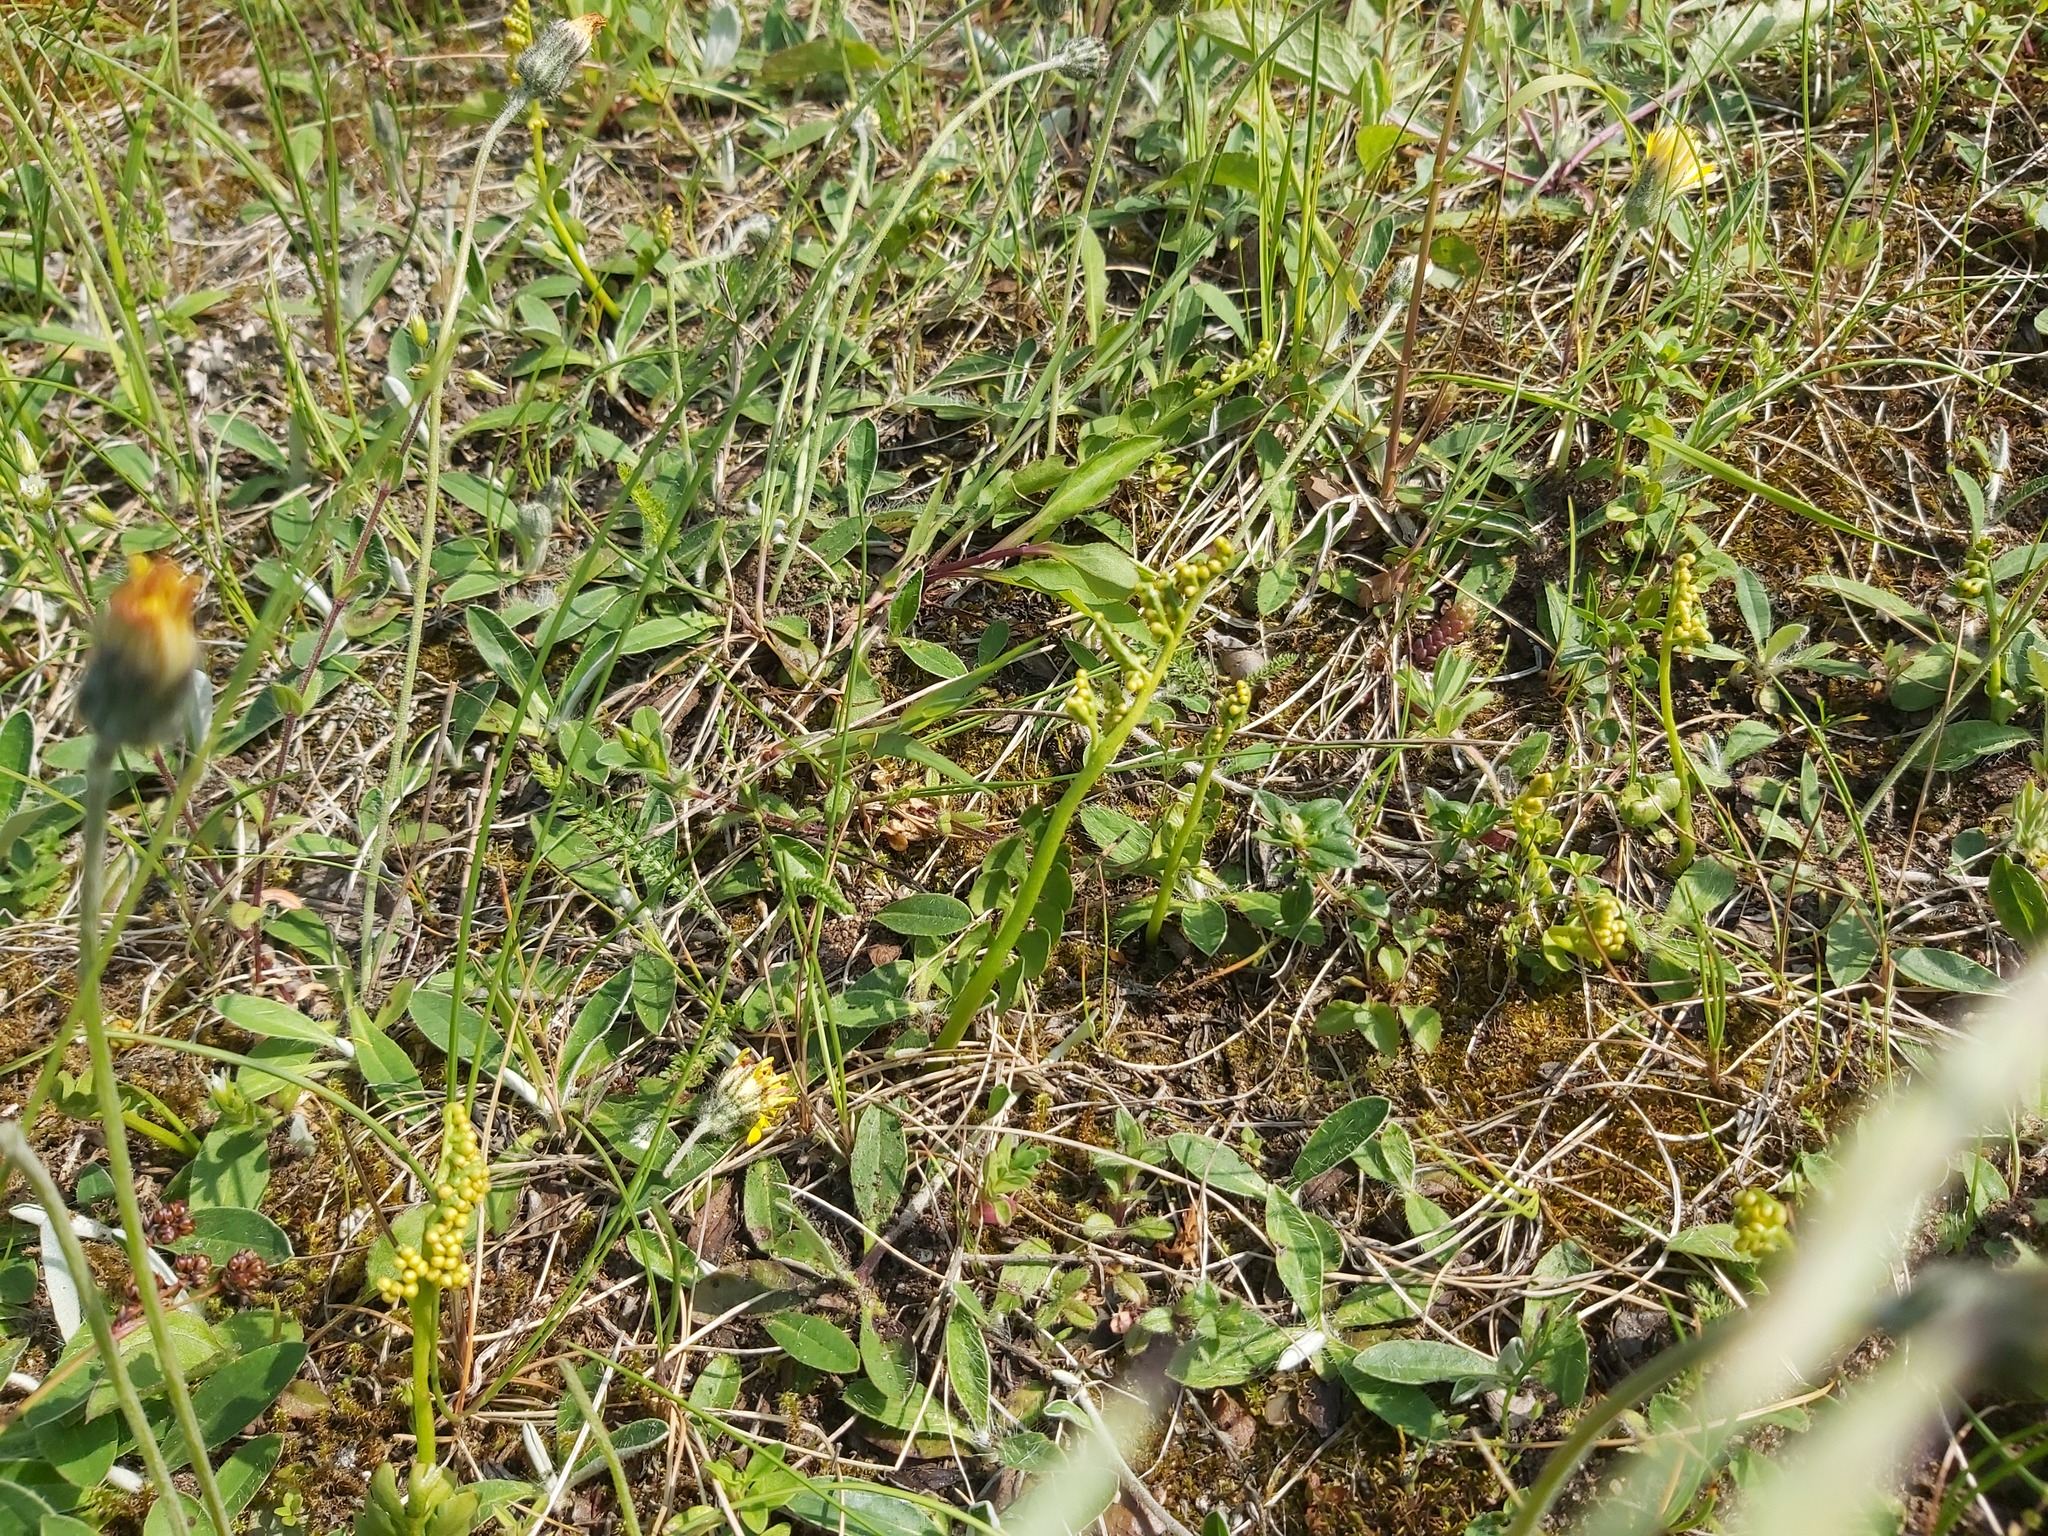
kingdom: Plantae
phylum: Tracheophyta
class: Polypodiopsida
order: Ophioglossales
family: Ophioglossaceae
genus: Botrychium
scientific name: Botrychium lunaria
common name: Moonwort
